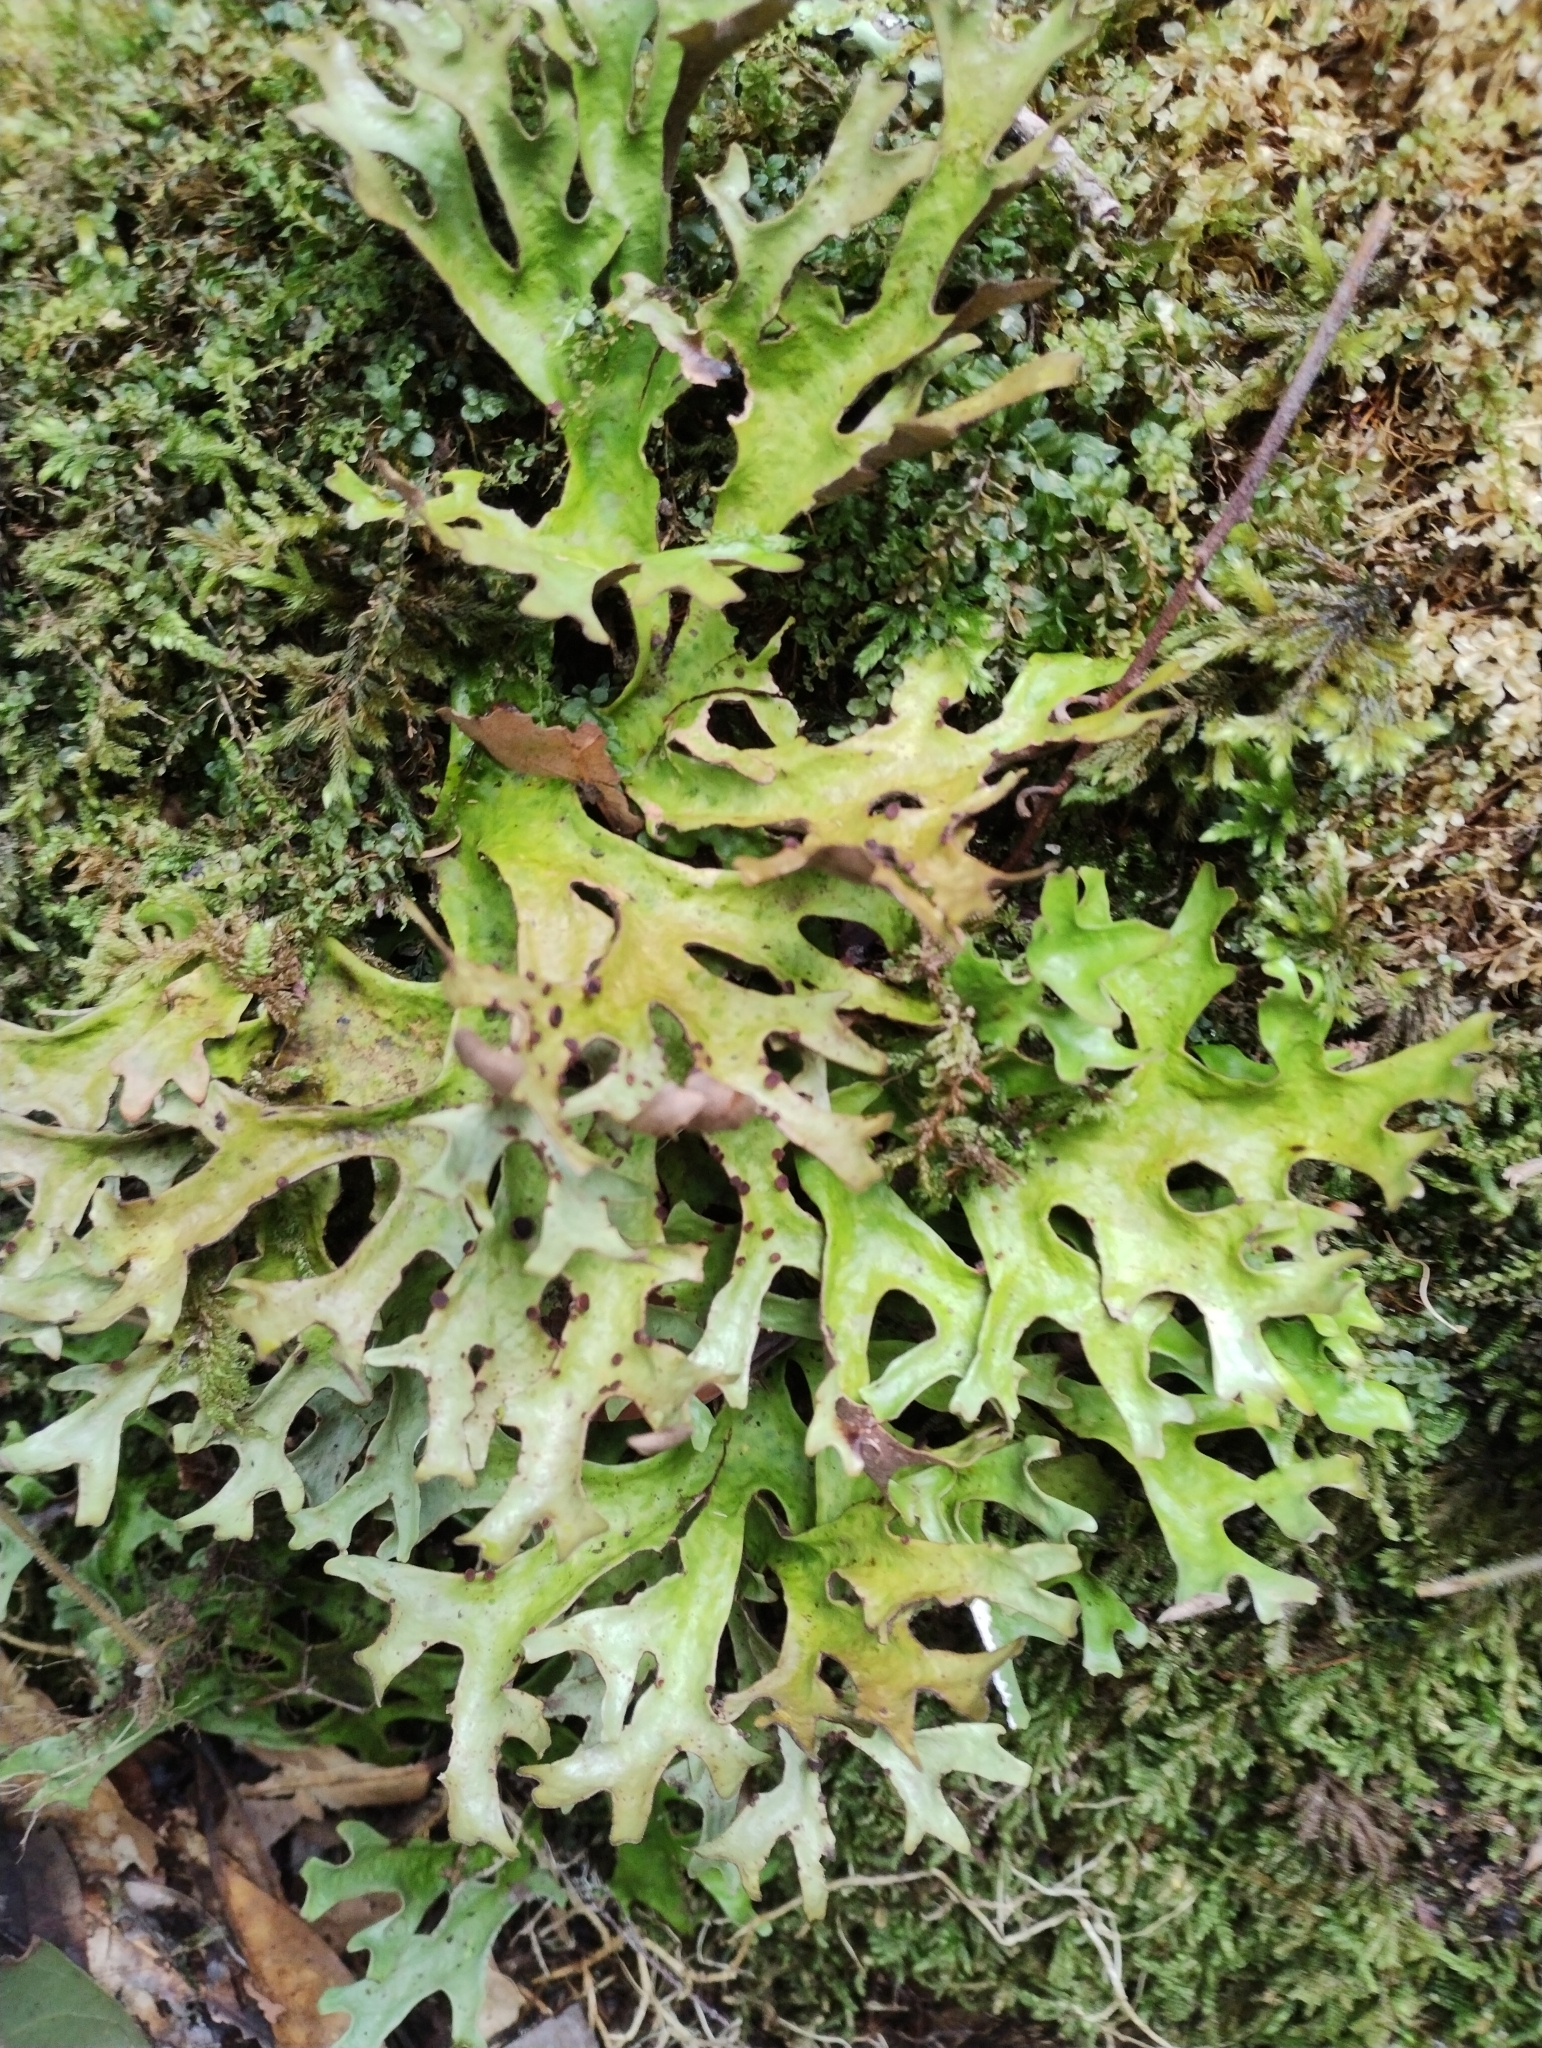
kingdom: Fungi
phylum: Ascomycota
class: Lecanoromycetes
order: Peltigerales
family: Lobariaceae
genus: Sticta
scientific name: Sticta canariensis
